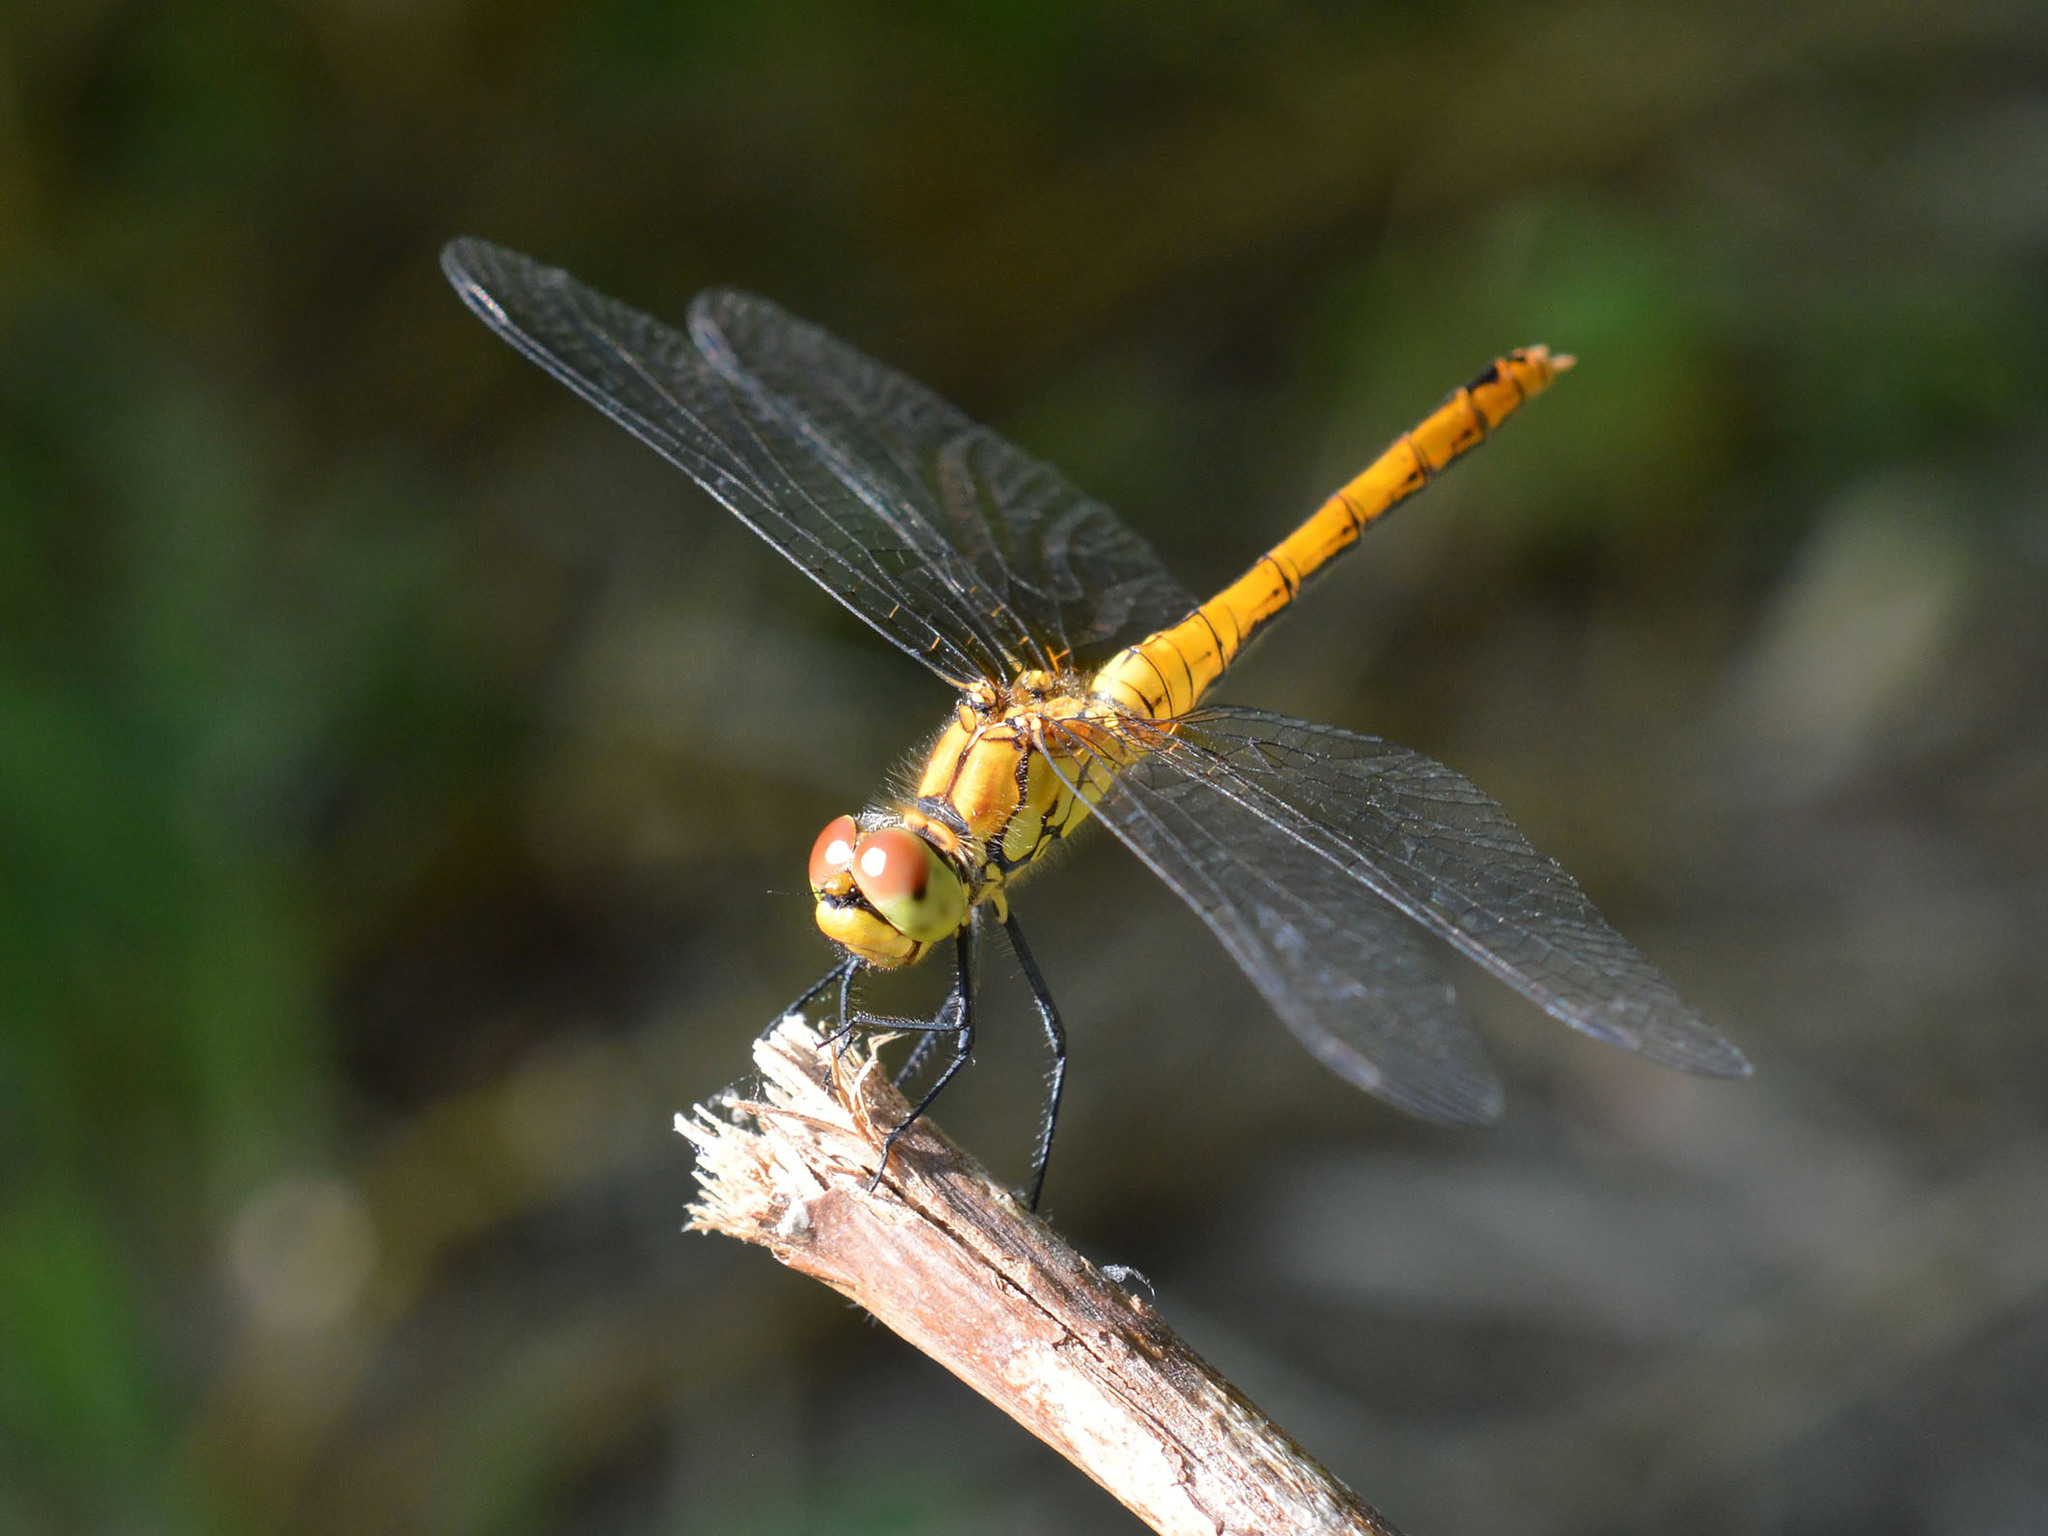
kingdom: Animalia
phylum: Arthropoda
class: Insecta
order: Odonata
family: Libellulidae
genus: Sympetrum
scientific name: Sympetrum sanguineum
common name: Ruddy darter
